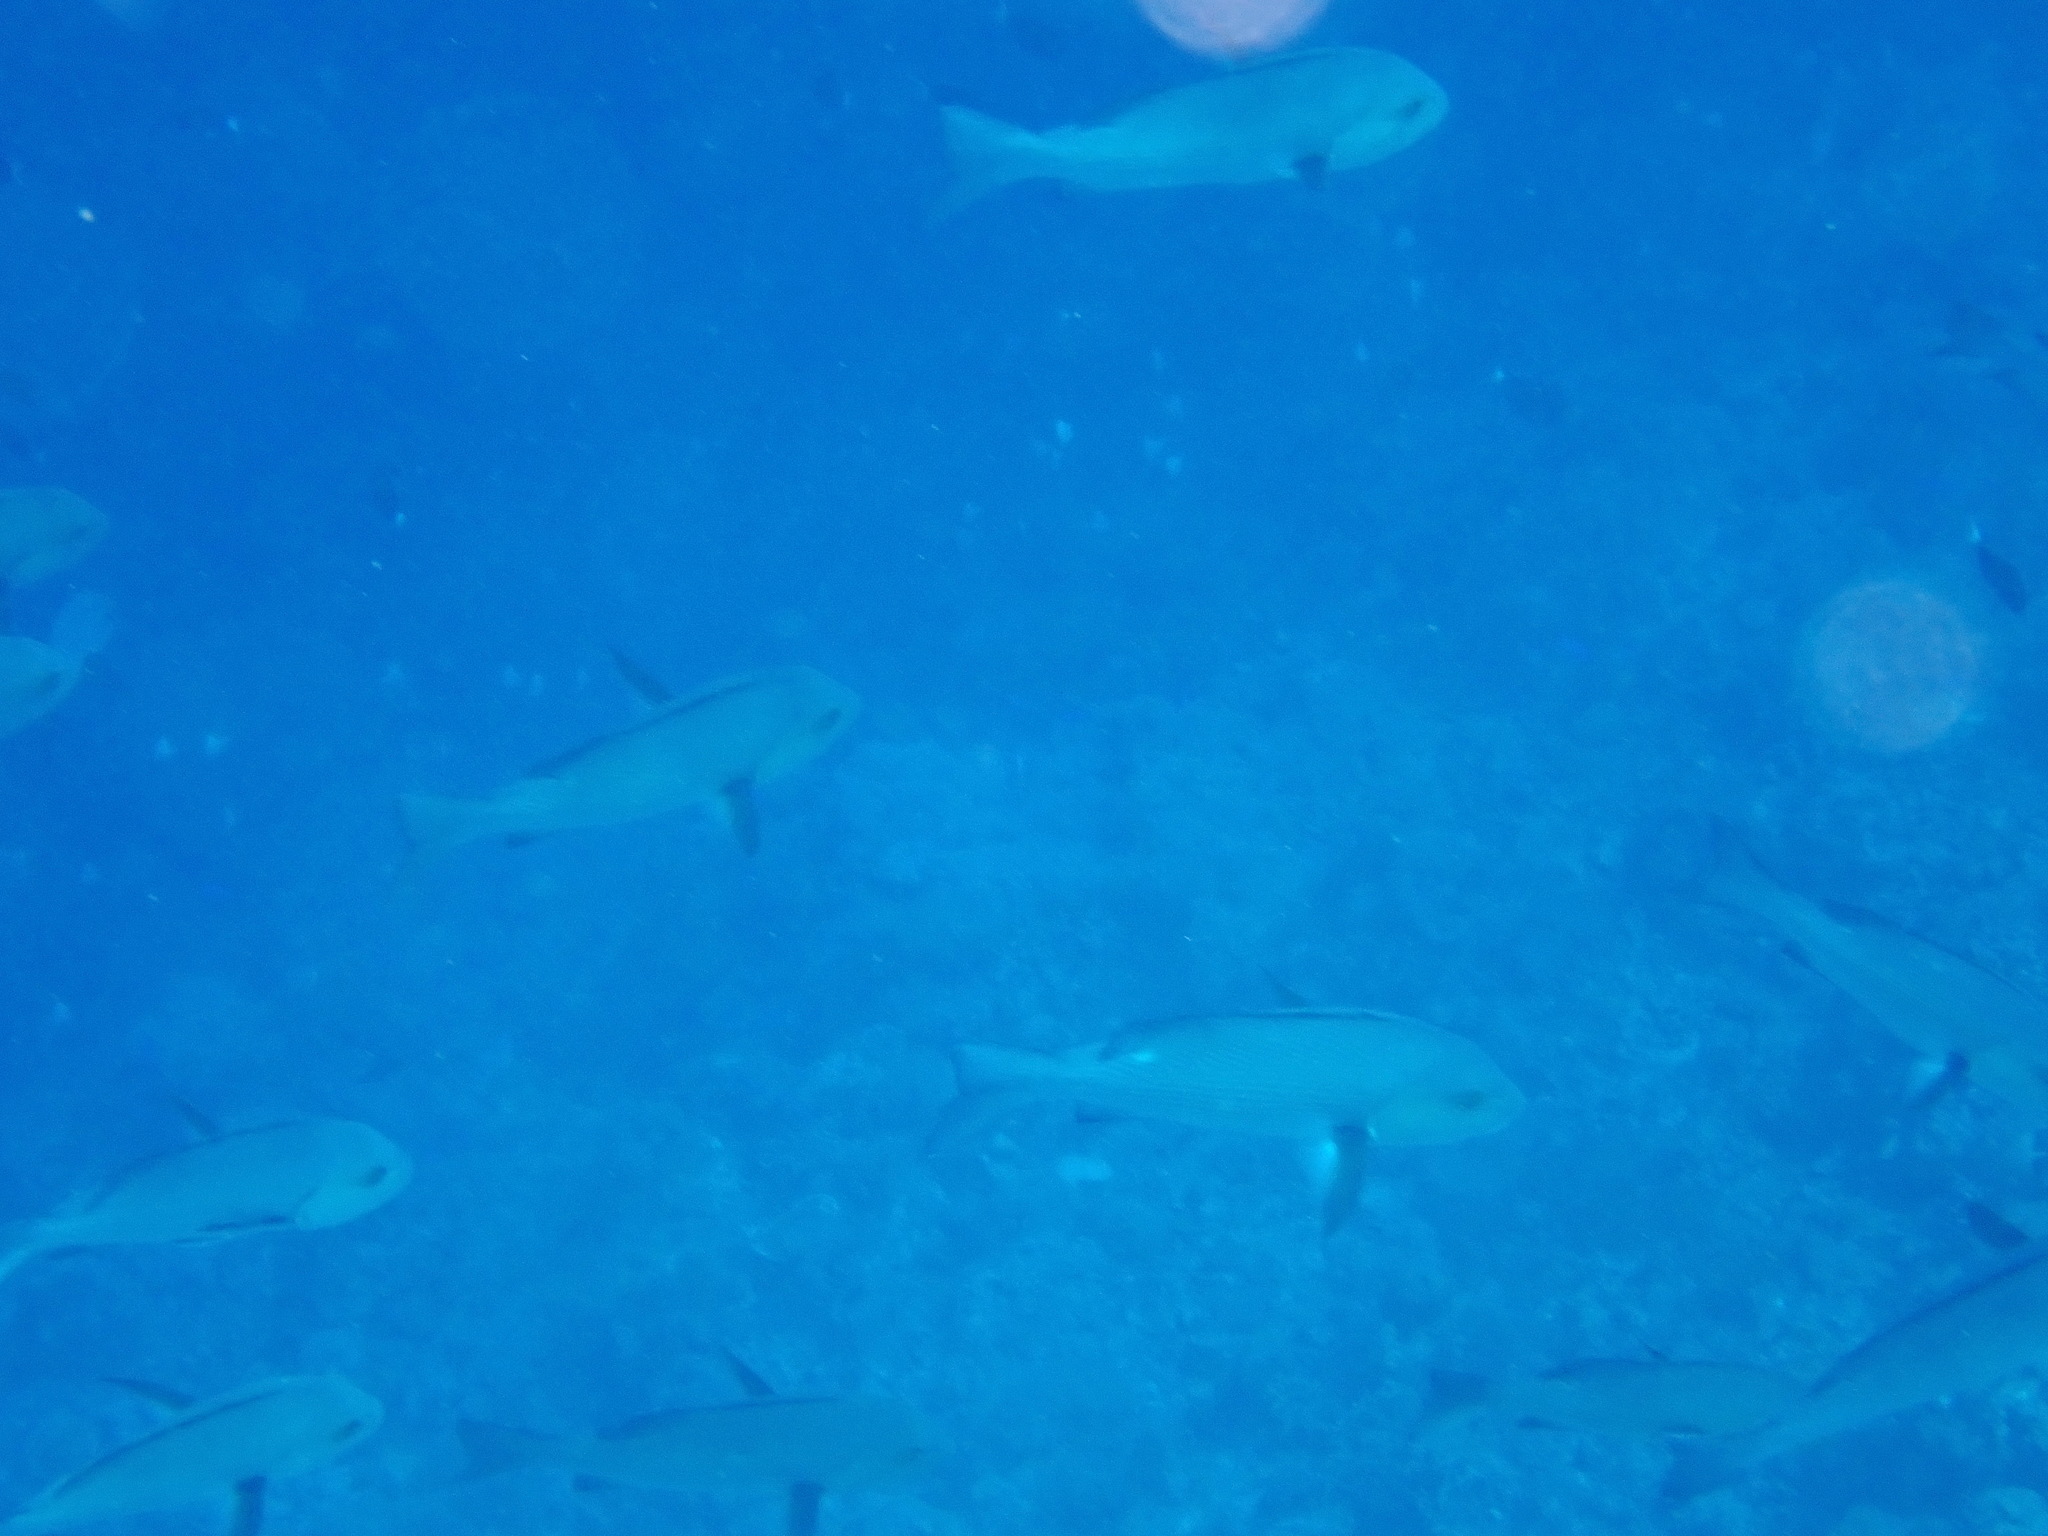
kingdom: Animalia
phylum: Chordata
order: Perciformes
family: Lutjanidae
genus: Lutjanus
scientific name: Lutjanus bohar
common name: Red bass
